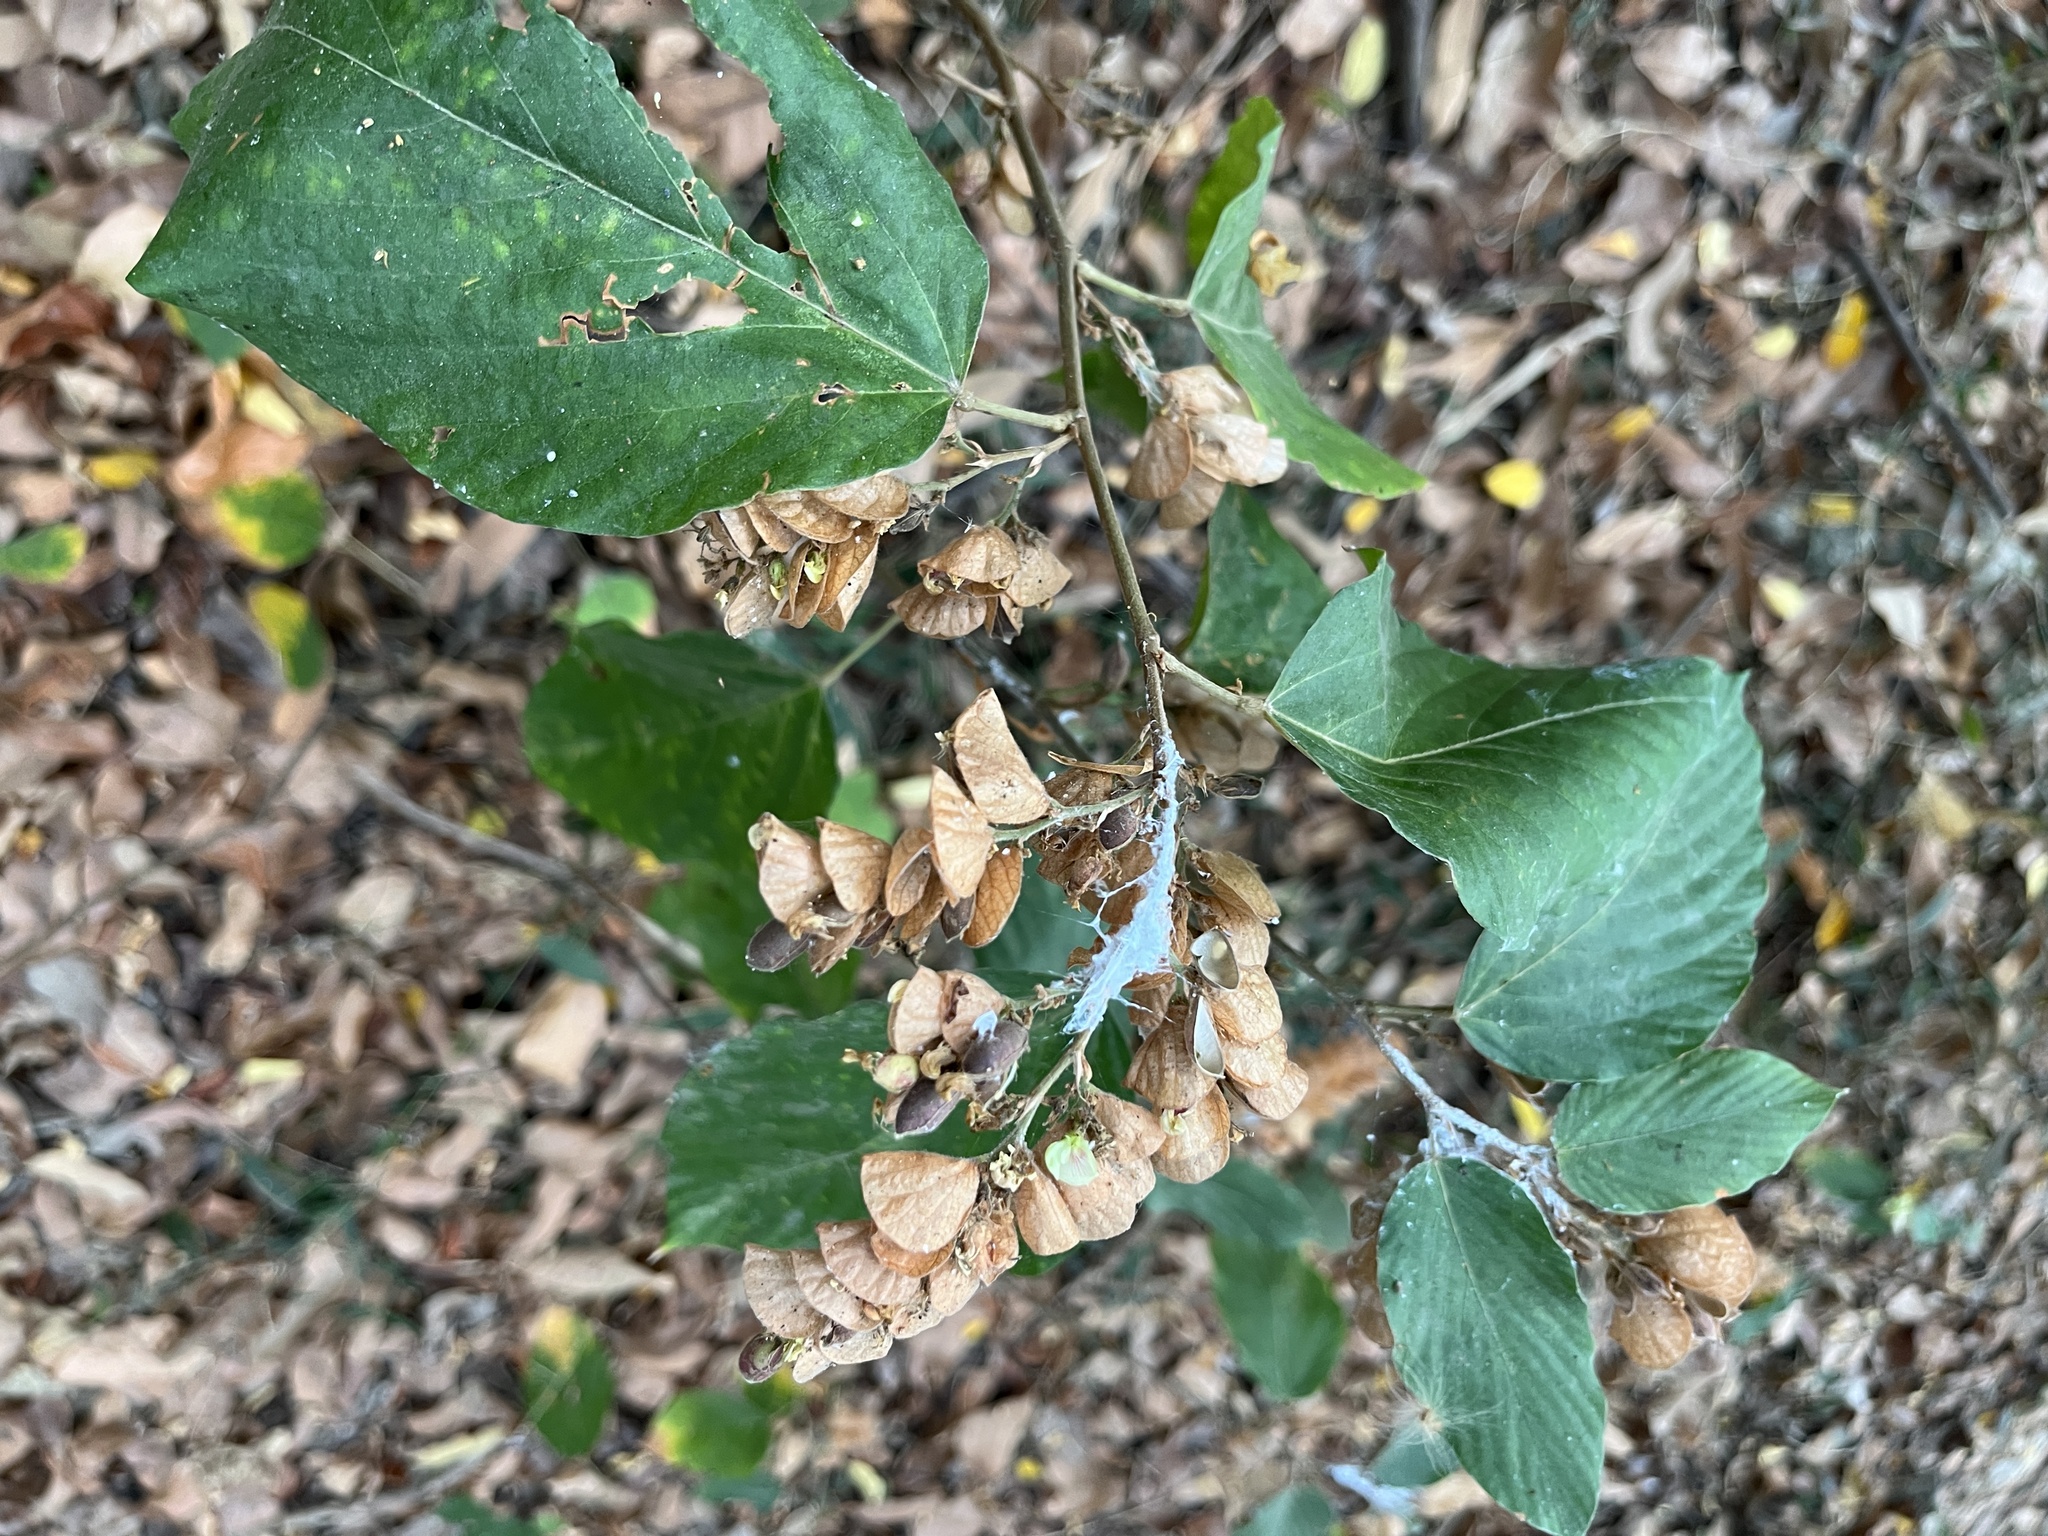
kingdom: Plantae
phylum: Tracheophyta
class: Magnoliopsida
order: Fabales
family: Fabaceae
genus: Flemingia
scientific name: Flemingia strobilifera
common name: Wild hops
